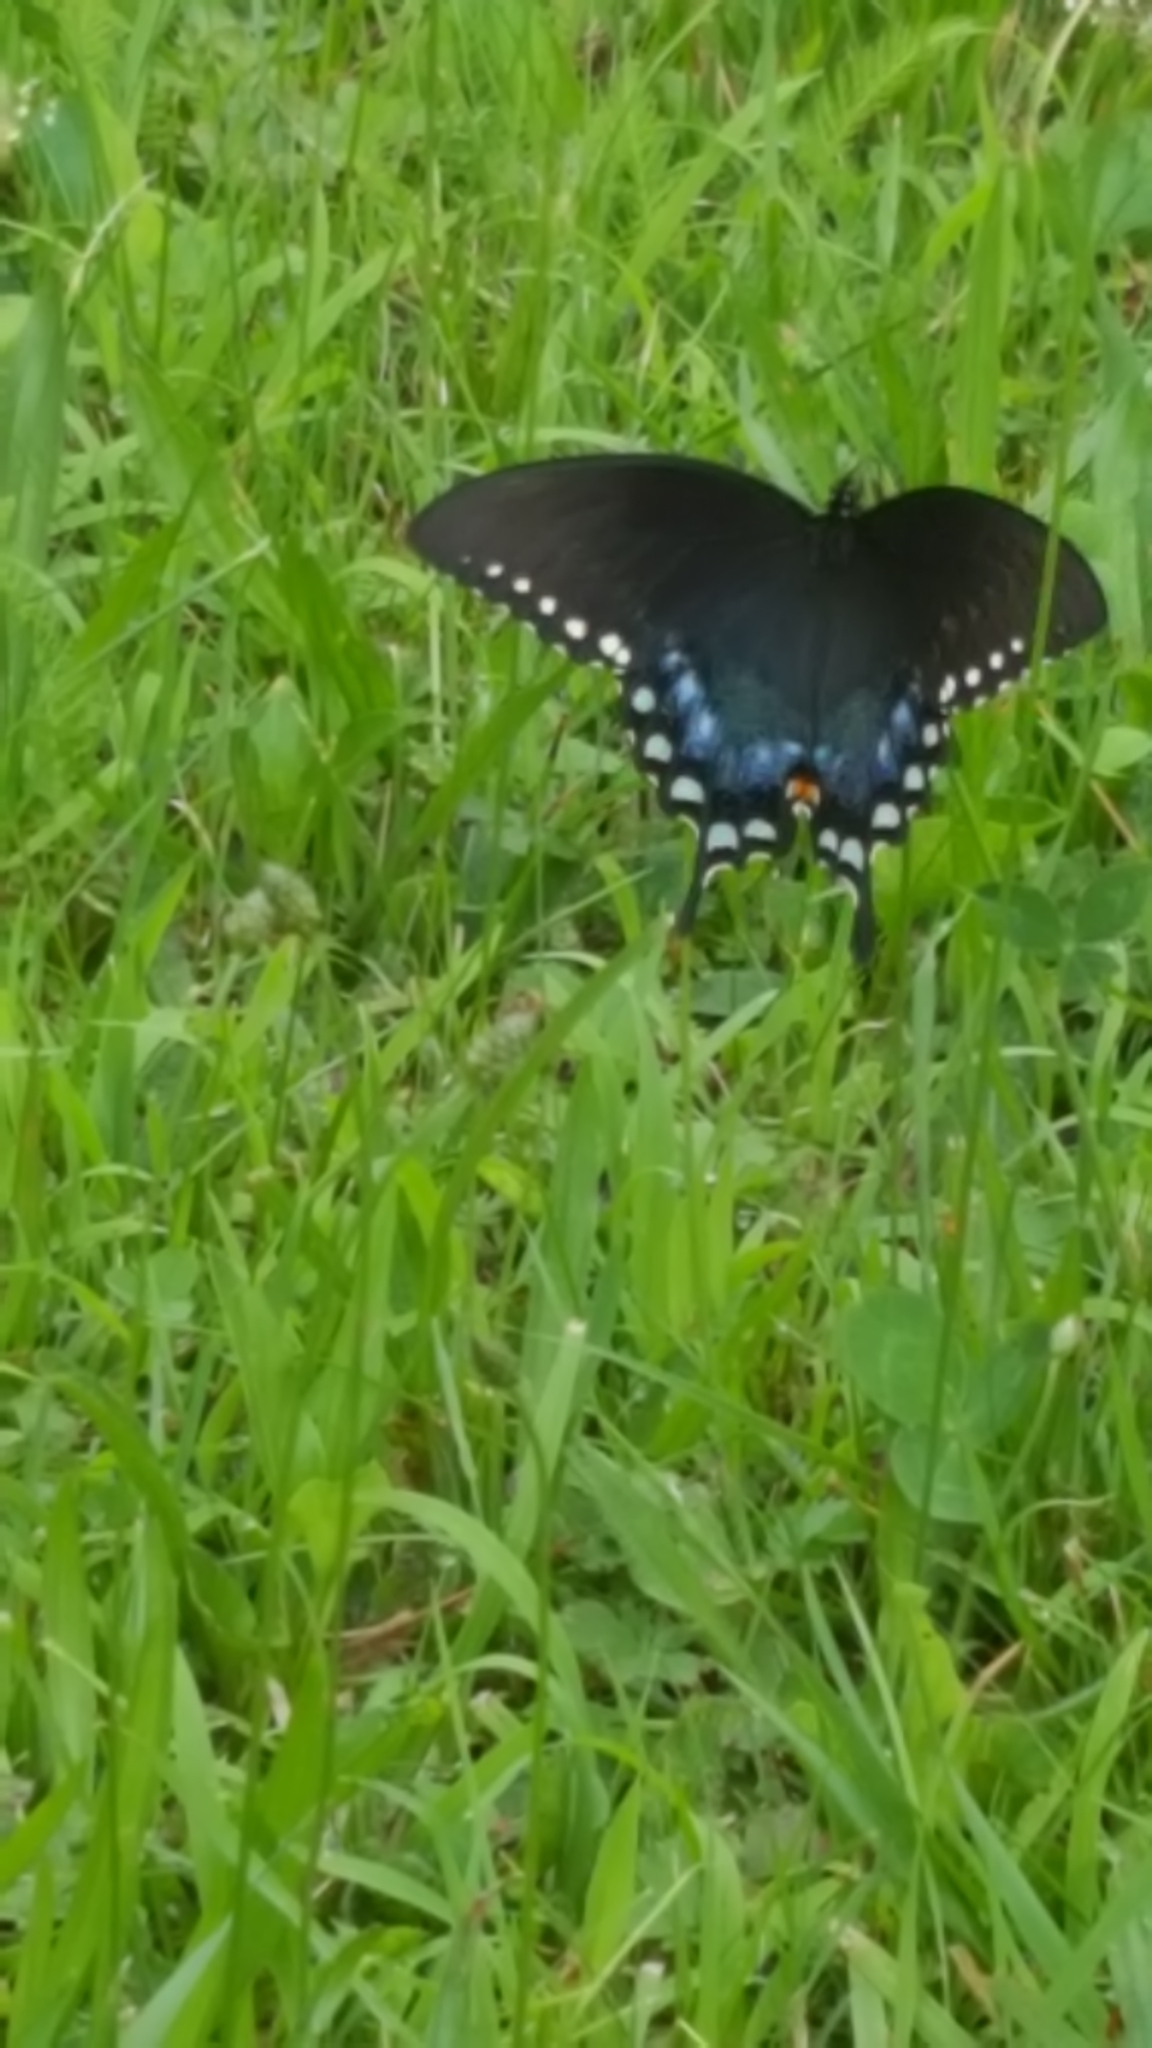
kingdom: Animalia
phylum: Arthropoda
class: Insecta
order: Lepidoptera
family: Papilionidae
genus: Papilio
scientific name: Papilio troilus
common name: Spicebush swallowtail
